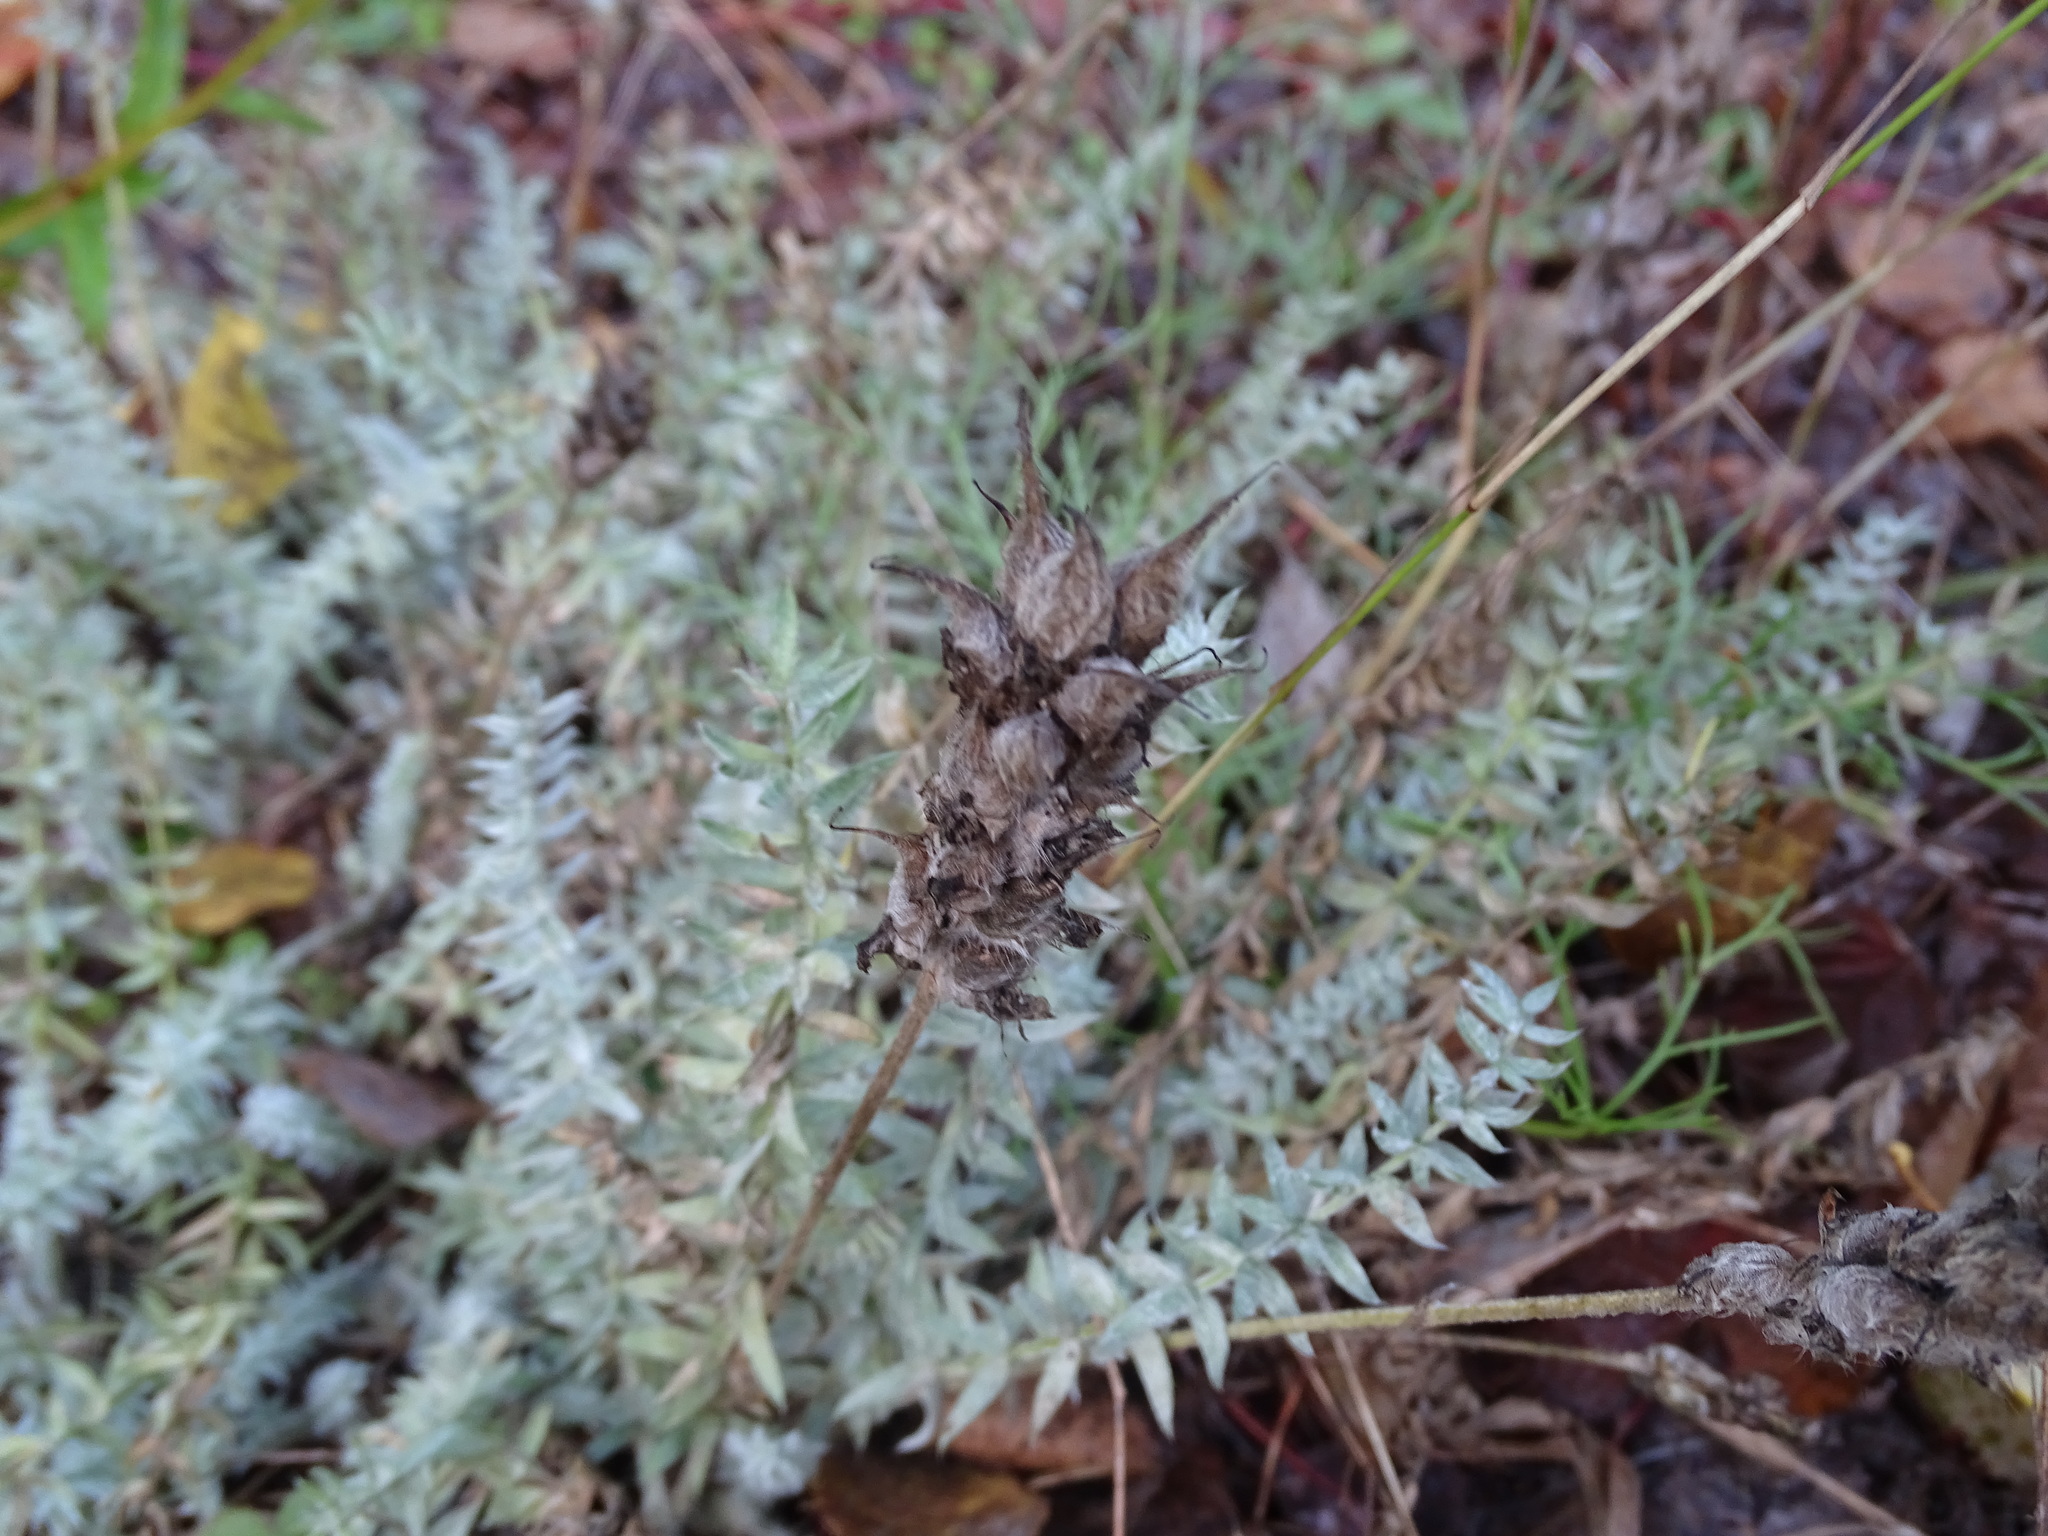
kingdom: Plantae
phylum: Tracheophyta
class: Magnoliopsida
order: Fabales
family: Fabaceae
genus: Oxytropis
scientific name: Oxytropis splendens
